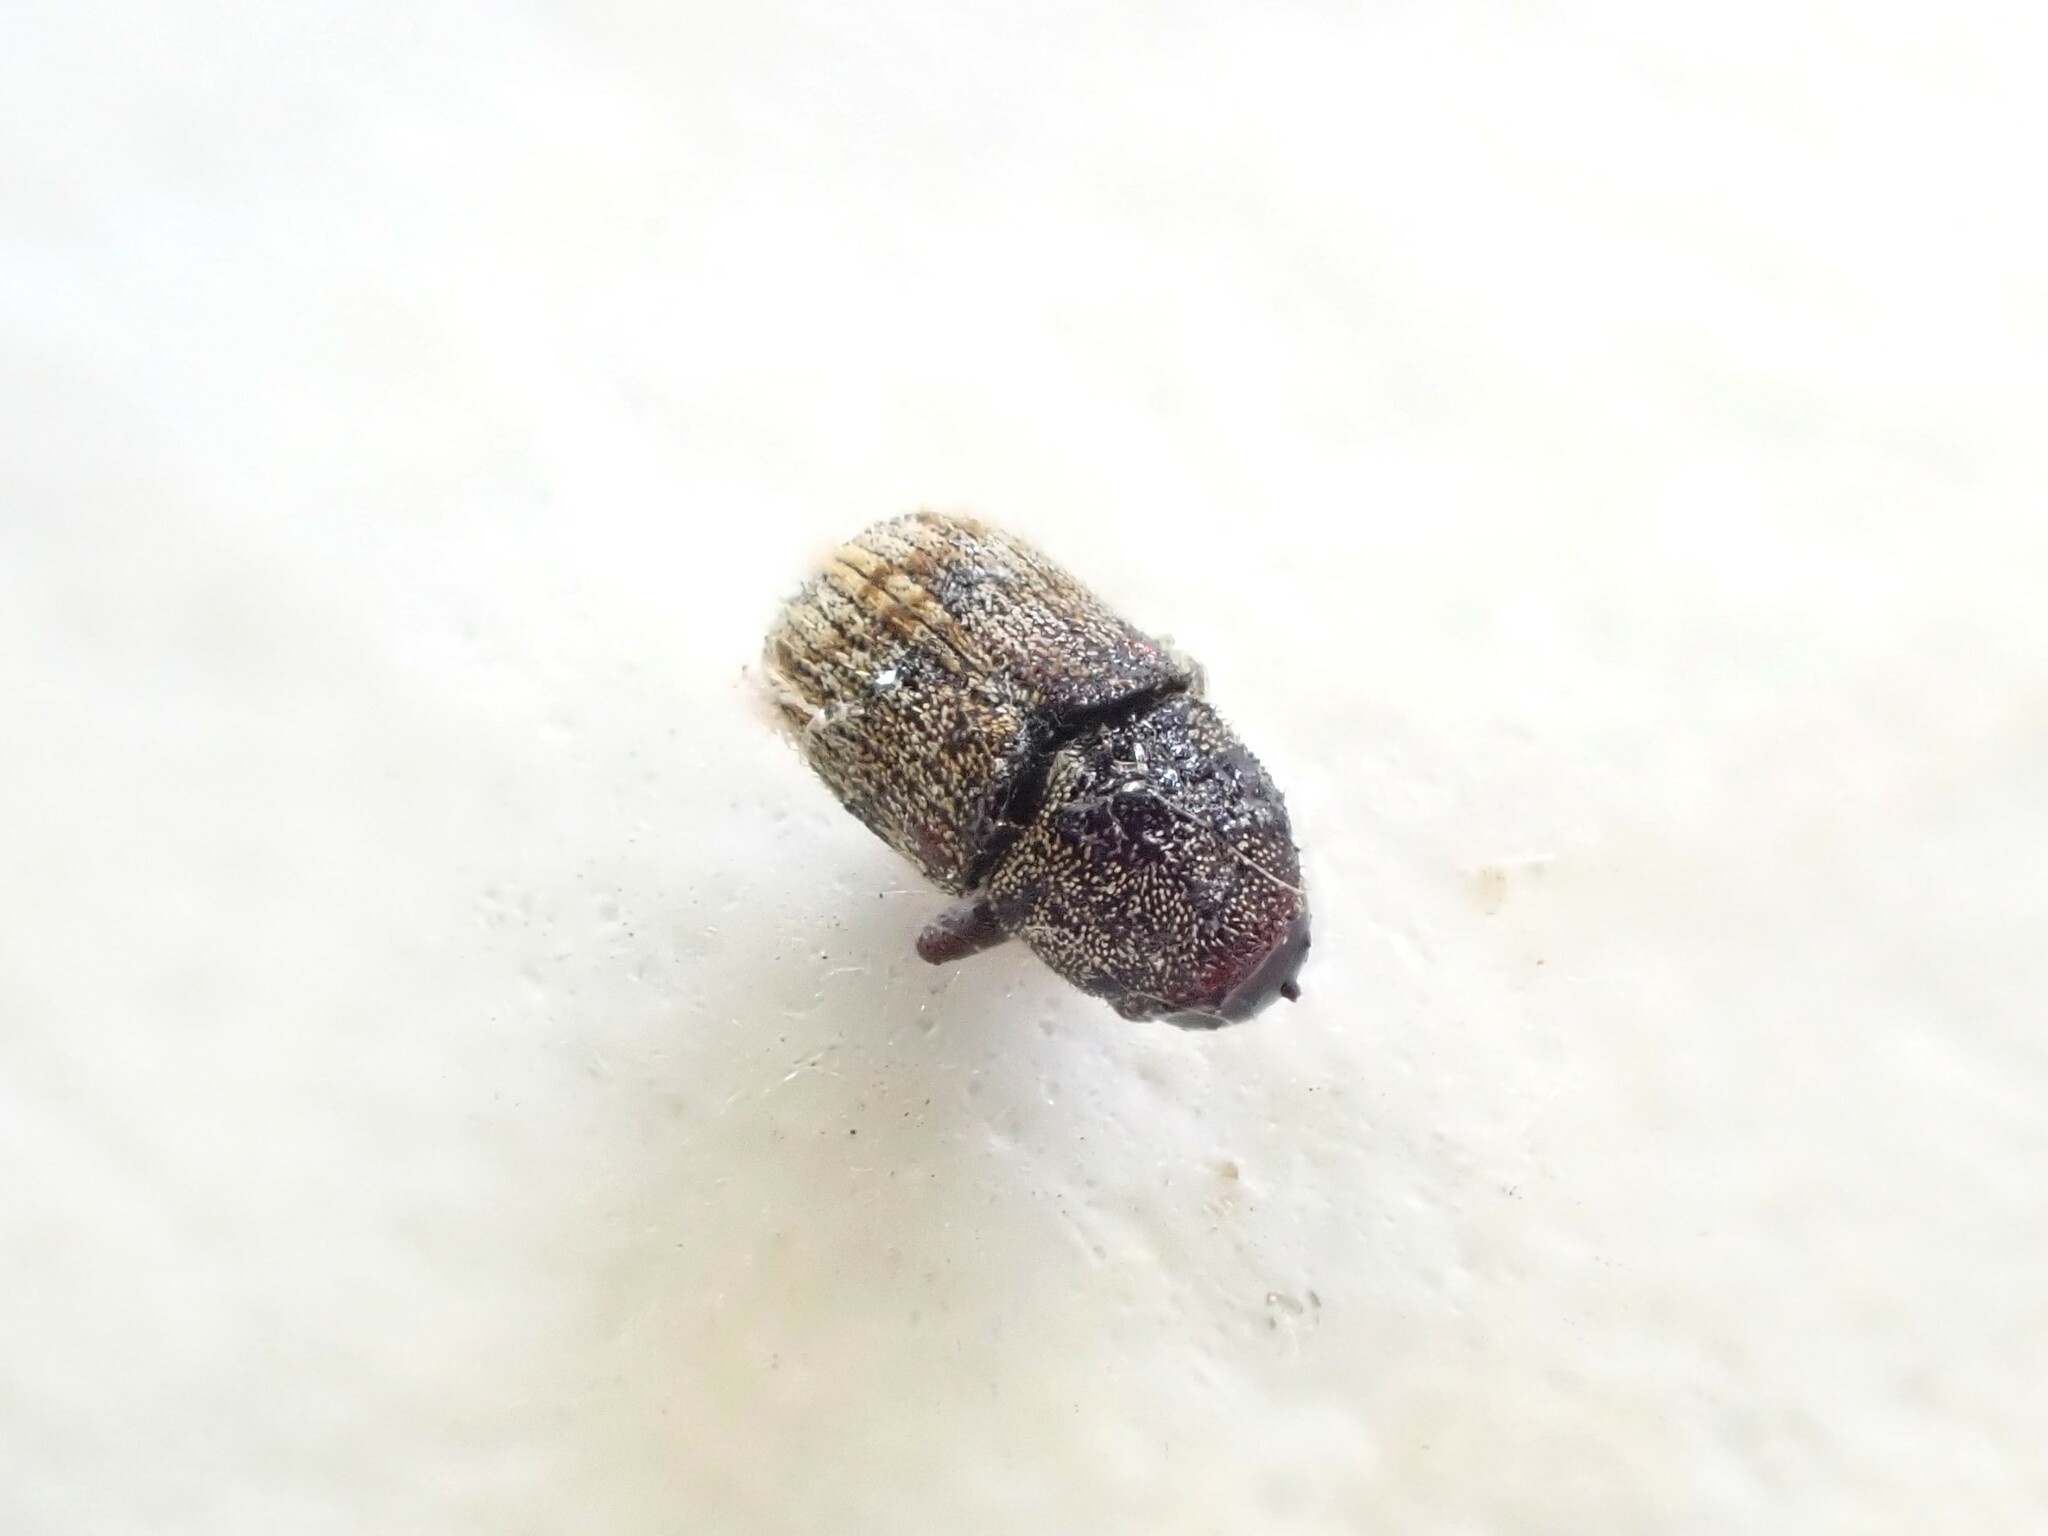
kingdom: Animalia
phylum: Arthropoda
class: Insecta
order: Coleoptera
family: Curculionidae
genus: Chaetoptelius
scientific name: Chaetoptelius mundulus
